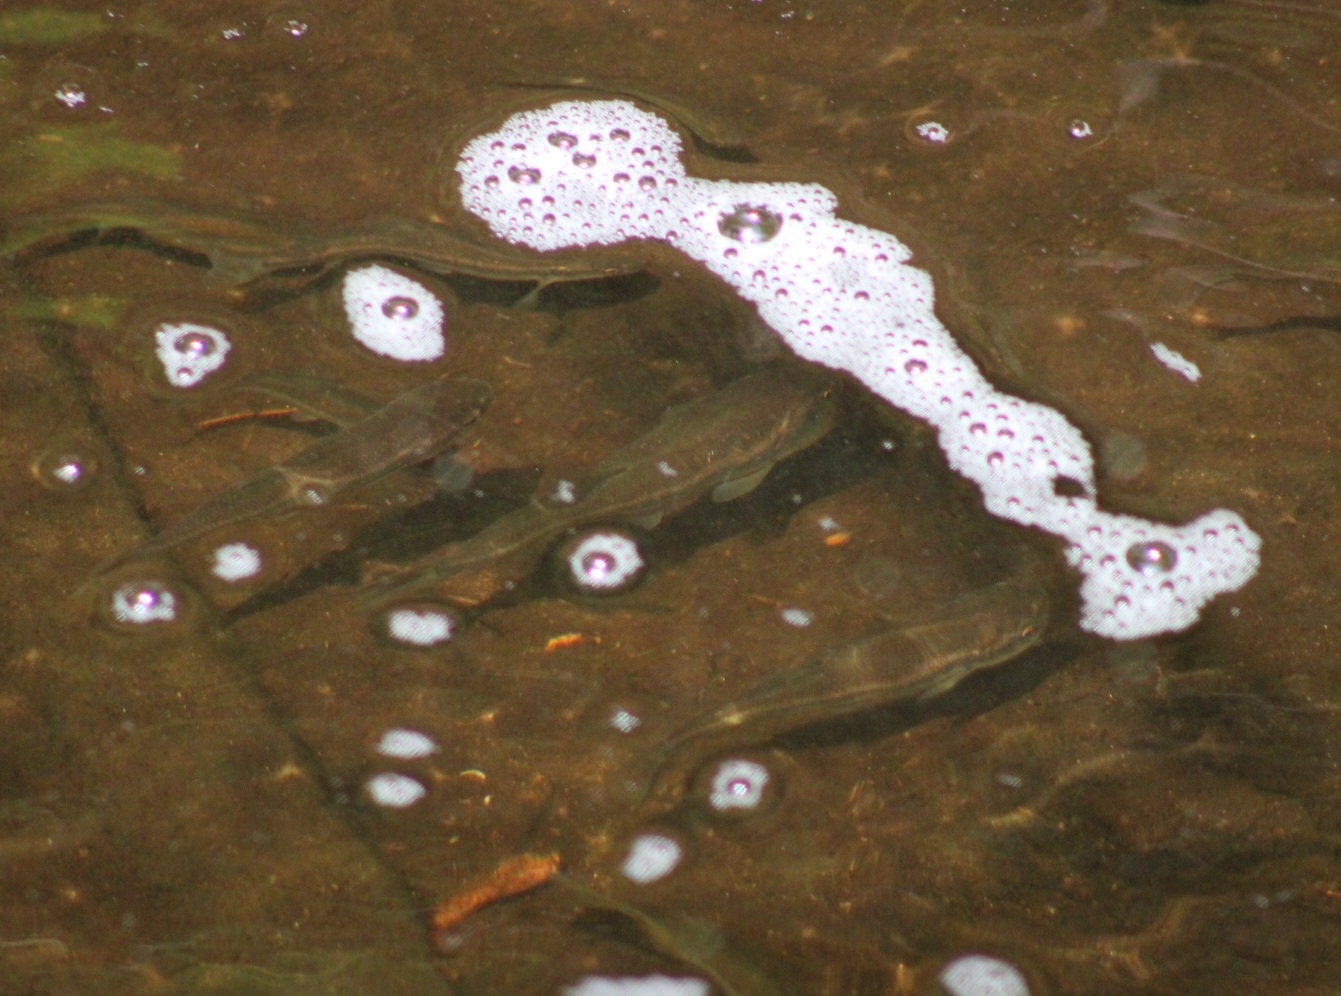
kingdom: Animalia
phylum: Chordata
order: Cypriniformes
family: Cyprinidae
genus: Semotilus
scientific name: Semotilus atromaculatus
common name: Creek chub
